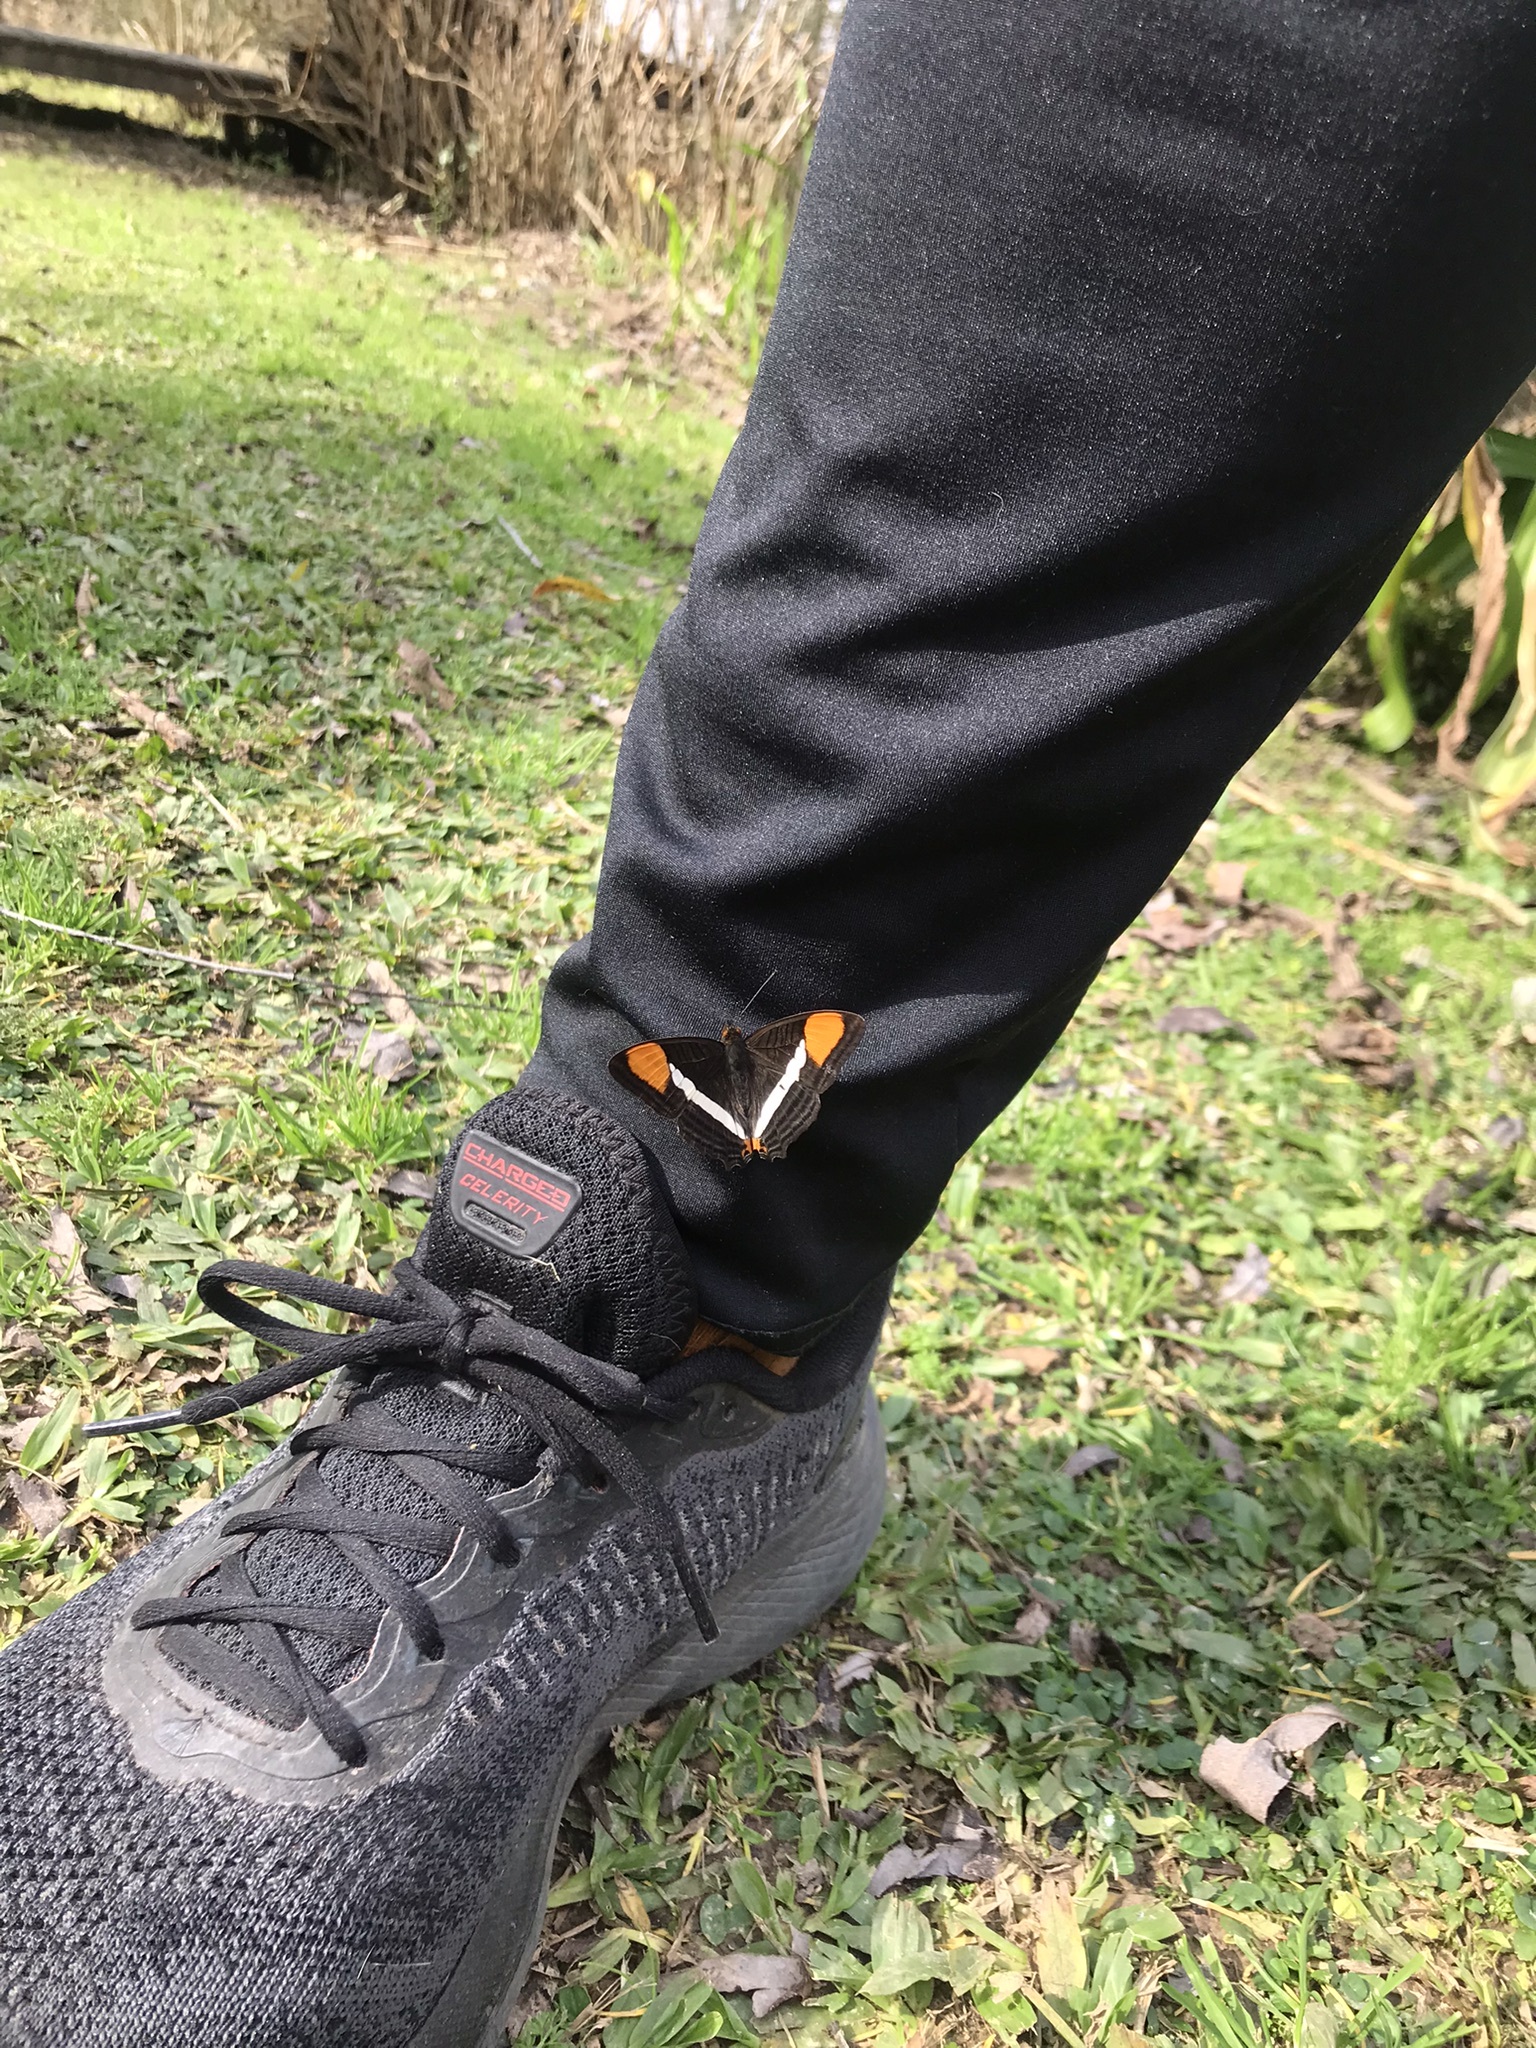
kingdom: Animalia
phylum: Arthropoda
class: Insecta
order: Lepidoptera
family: Nymphalidae
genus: Limenitis
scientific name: Limenitis syma
